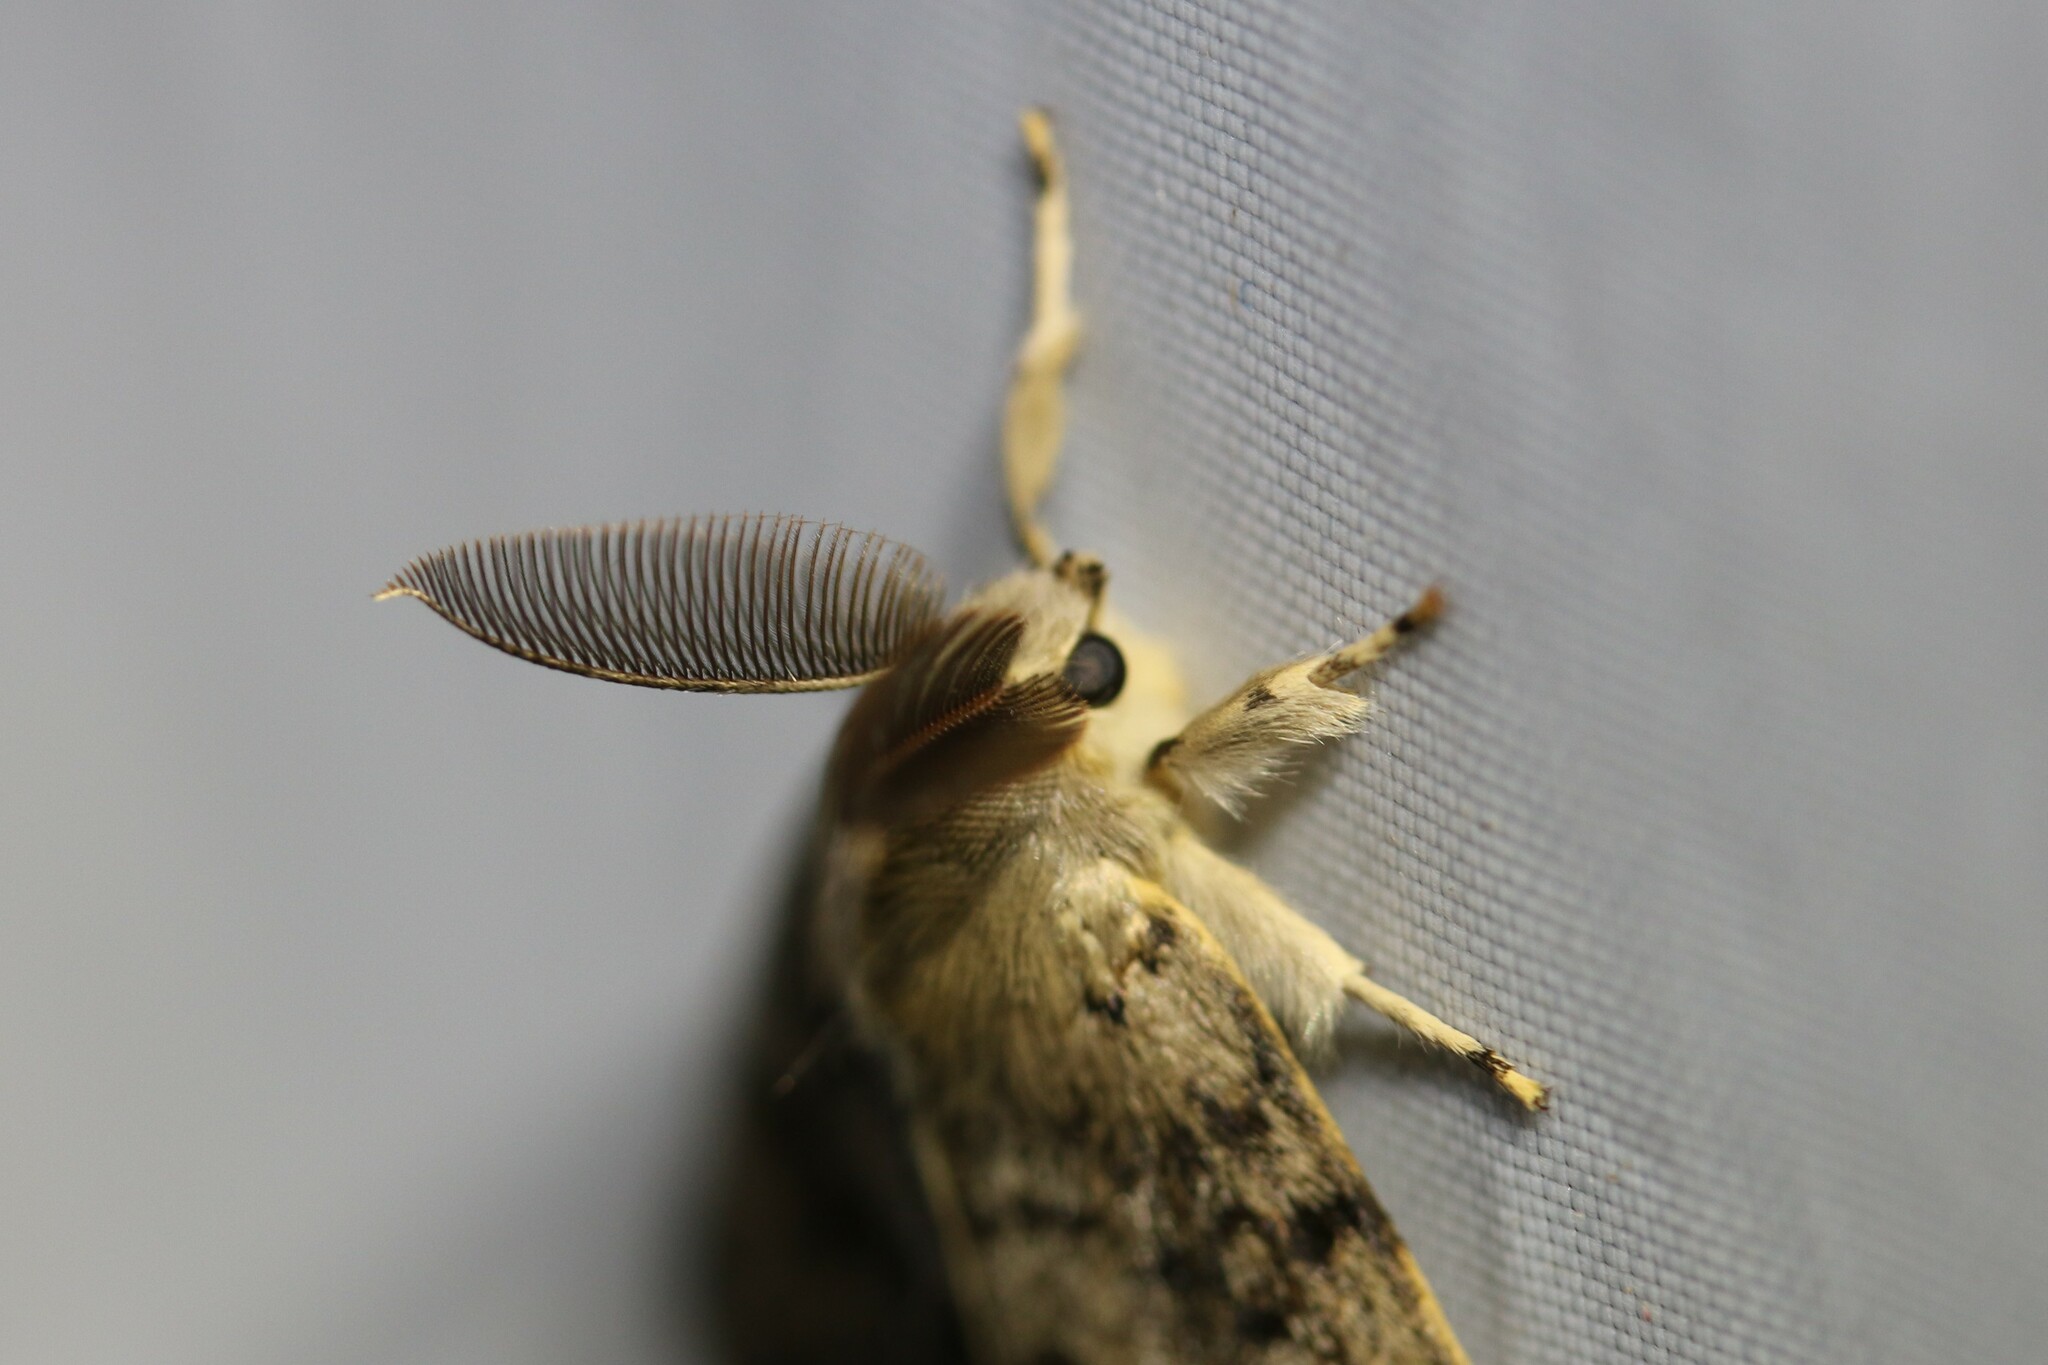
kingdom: Animalia
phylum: Arthropoda
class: Insecta
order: Lepidoptera
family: Erebidae
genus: Lymantria
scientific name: Lymantria dispar
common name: Gypsy moth
